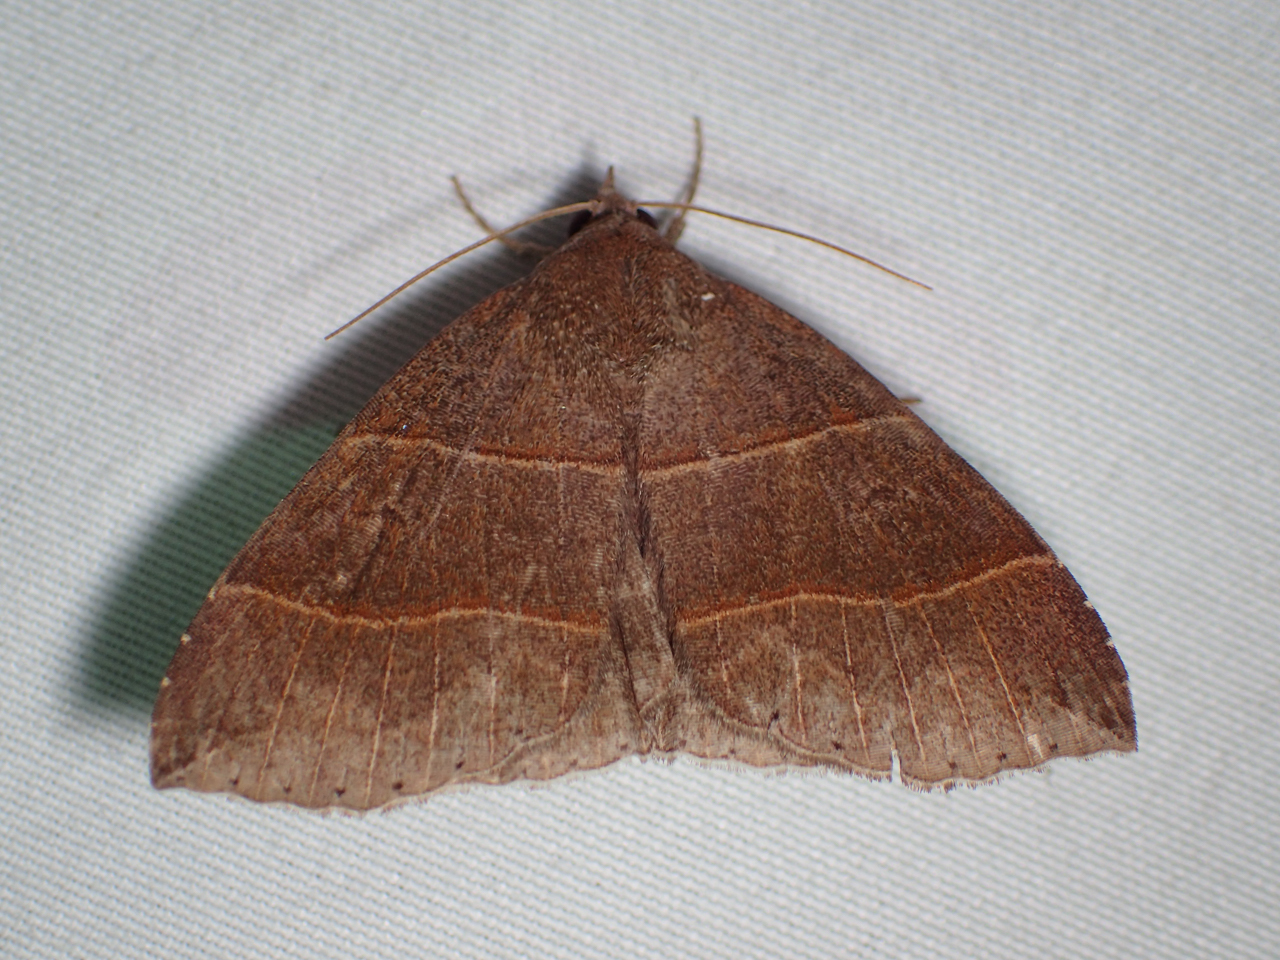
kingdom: Animalia
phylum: Arthropoda
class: Insecta
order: Lepidoptera
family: Erebidae
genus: Parallelia
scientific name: Parallelia bistriaris
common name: Maple looper moth
